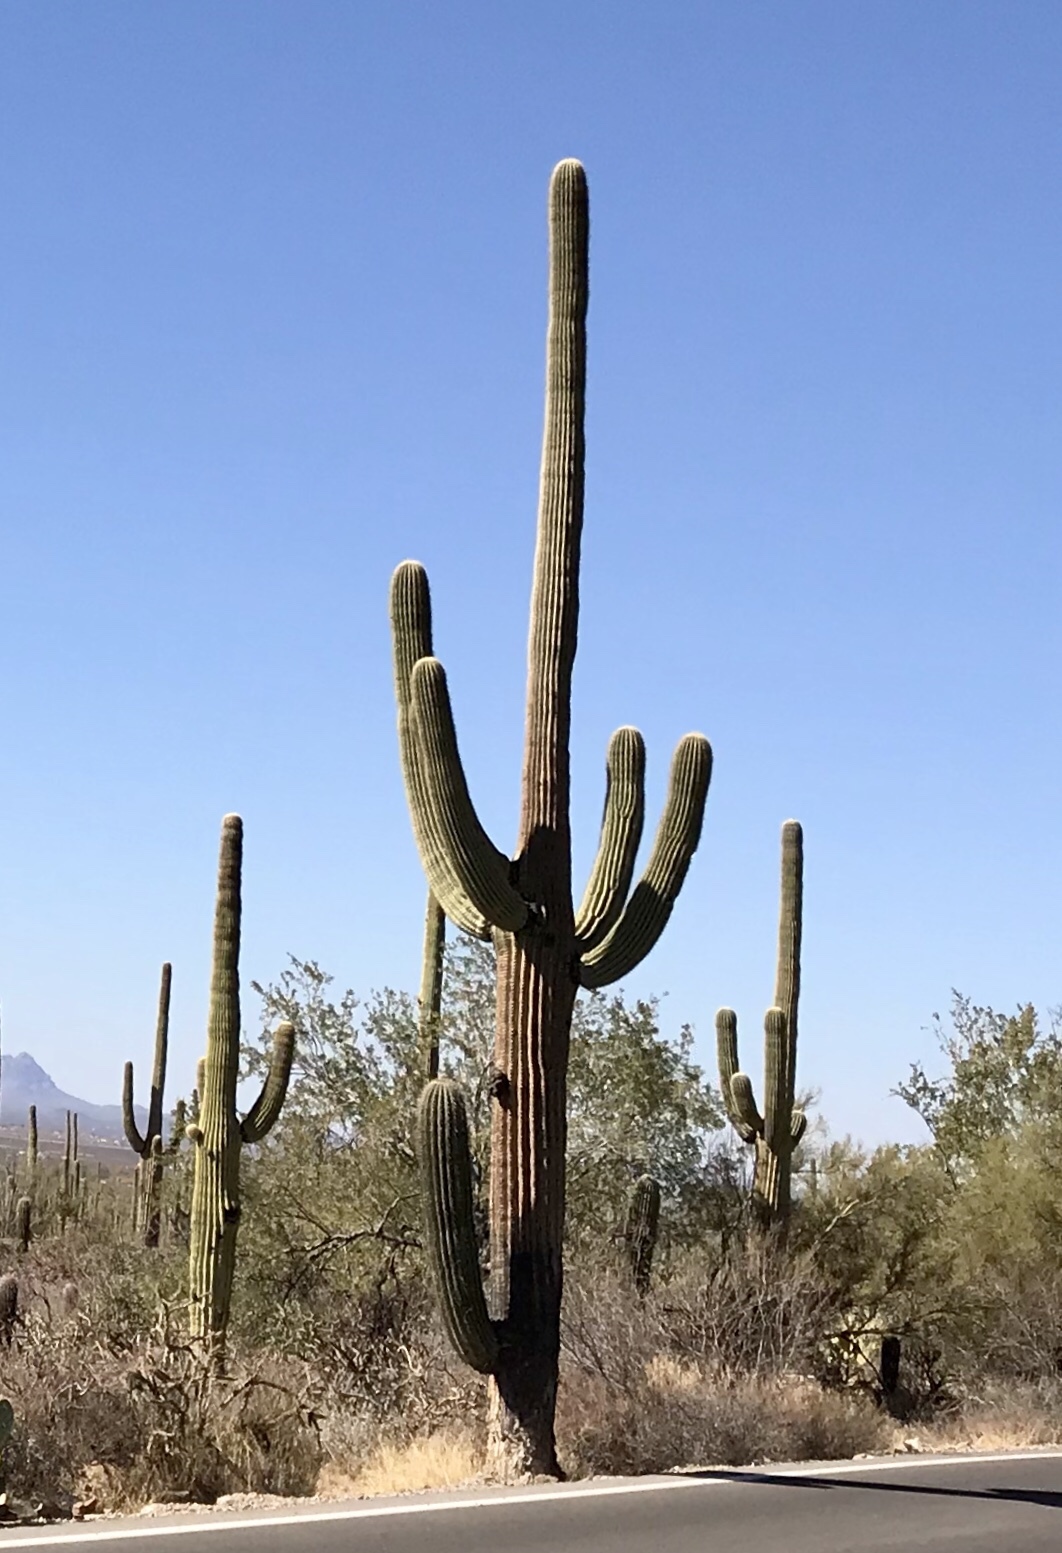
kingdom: Plantae
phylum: Tracheophyta
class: Magnoliopsida
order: Caryophyllales
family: Cactaceae
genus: Carnegiea
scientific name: Carnegiea gigantea
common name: Saguaro
